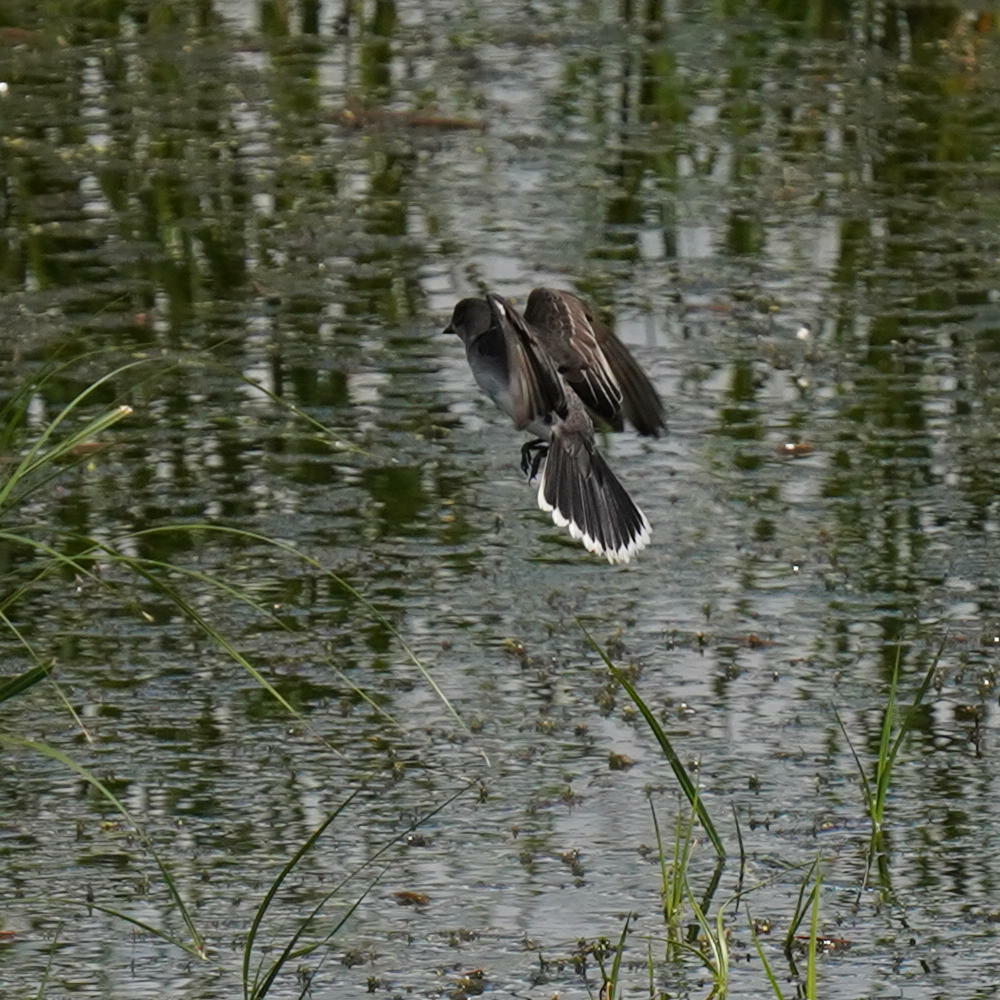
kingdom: Animalia
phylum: Chordata
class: Aves
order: Passeriformes
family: Tyrannidae
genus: Tyrannus
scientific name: Tyrannus tyrannus
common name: Eastern kingbird
